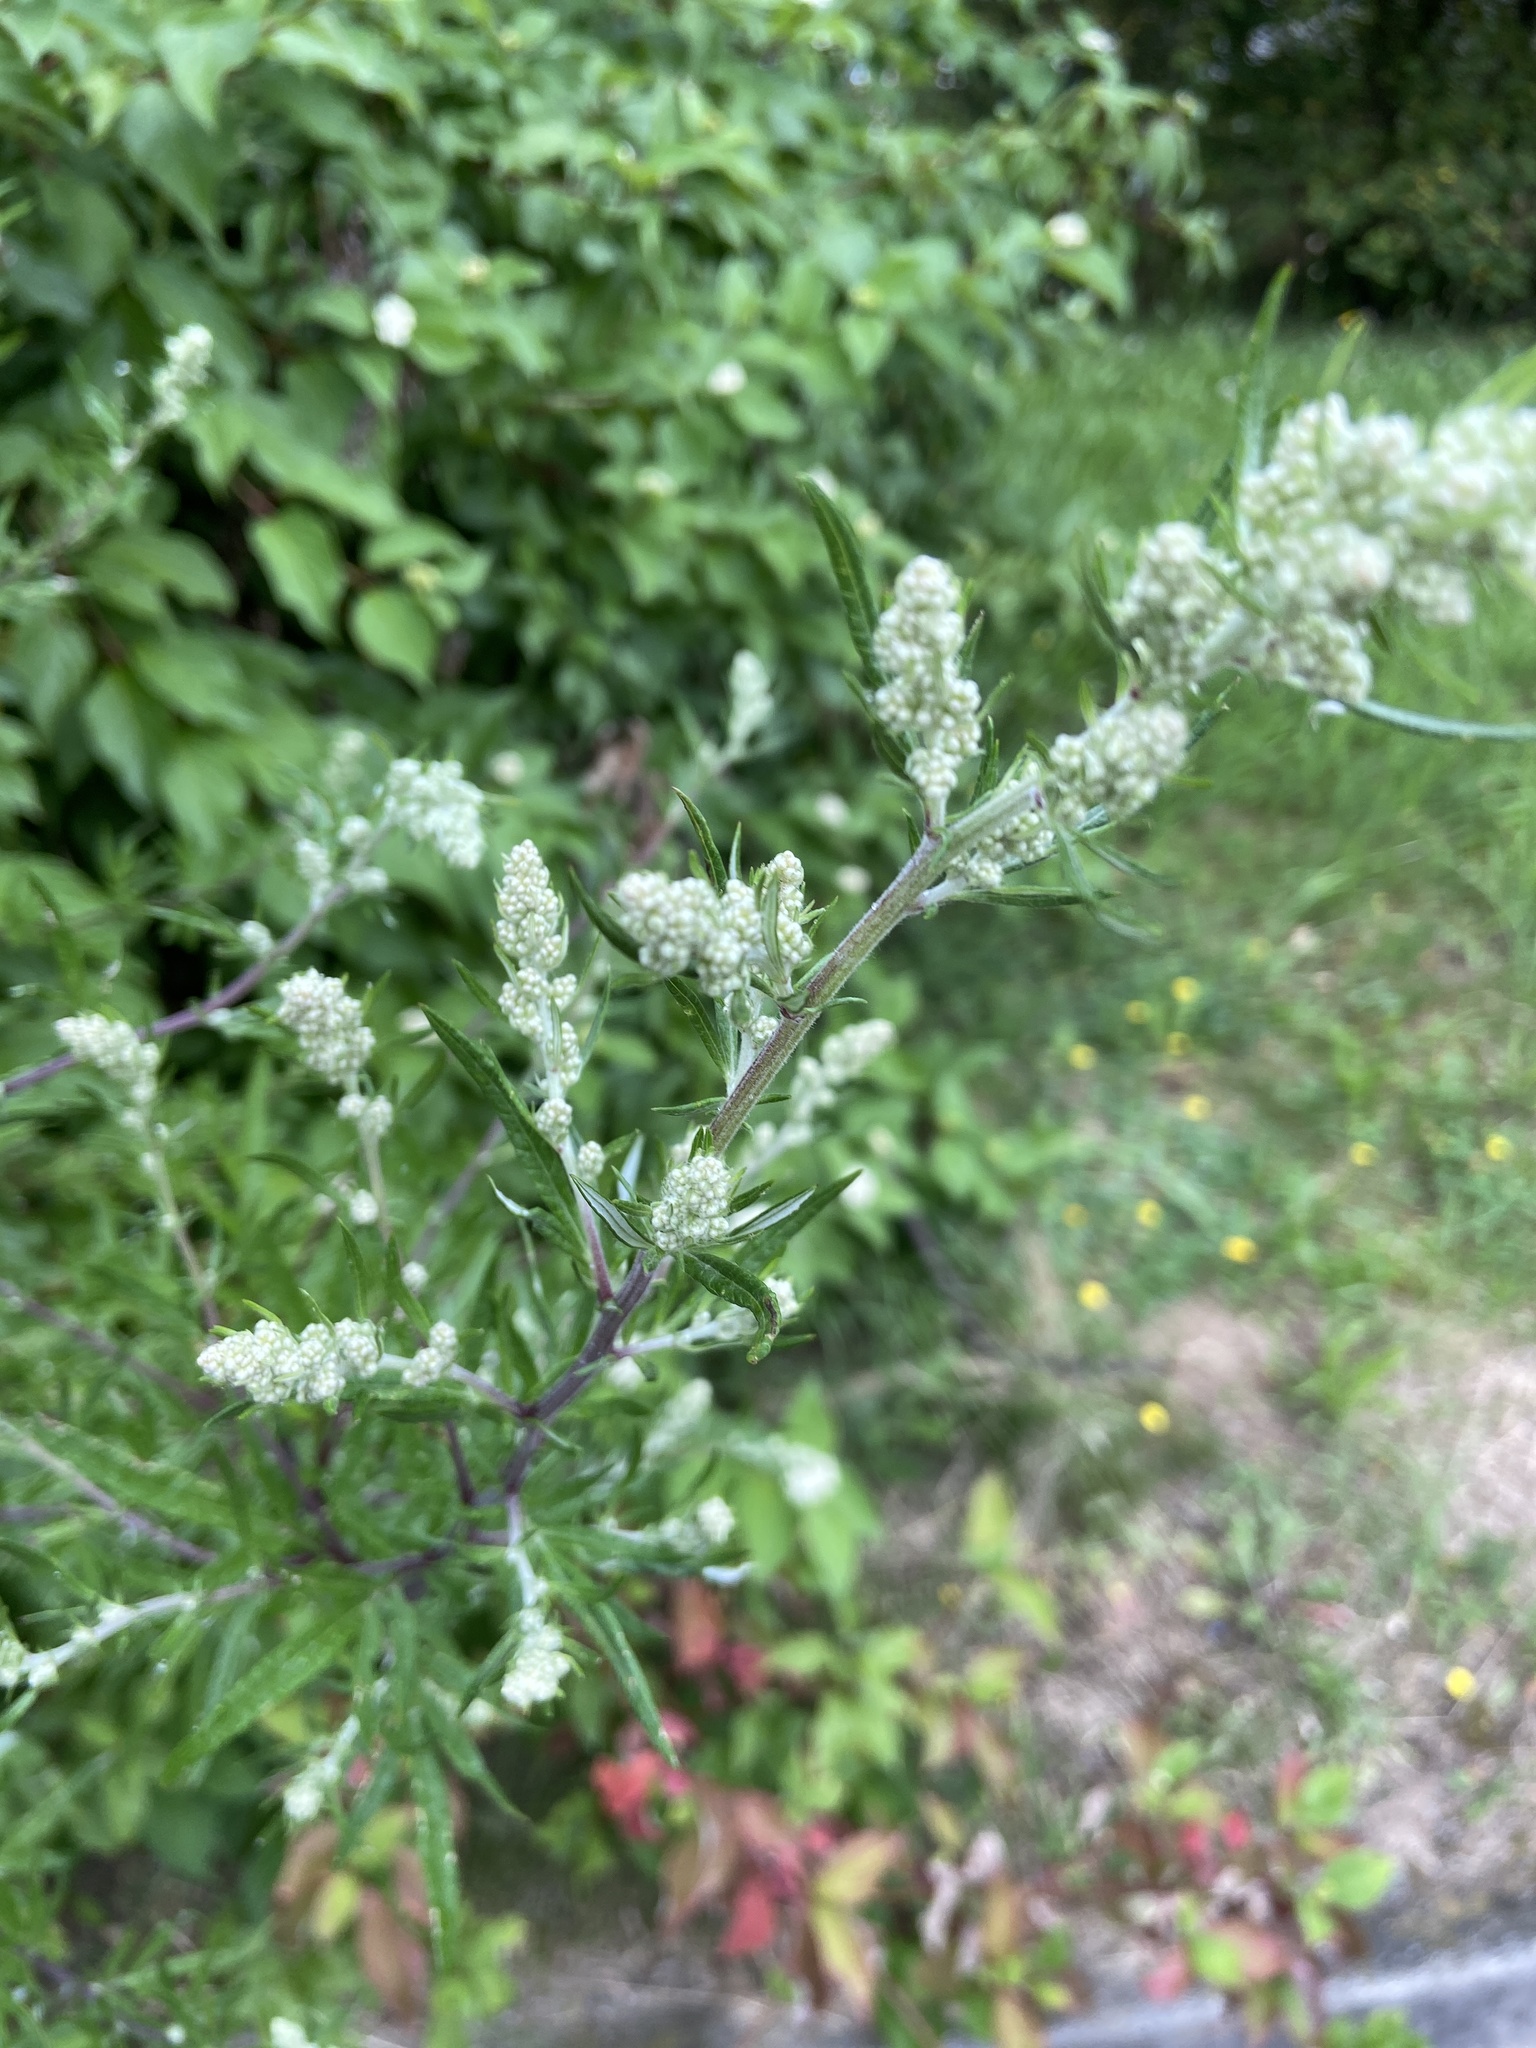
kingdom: Plantae
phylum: Tracheophyta
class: Magnoliopsida
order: Asterales
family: Asteraceae
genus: Artemisia
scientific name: Artemisia vulgaris
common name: Mugwort
